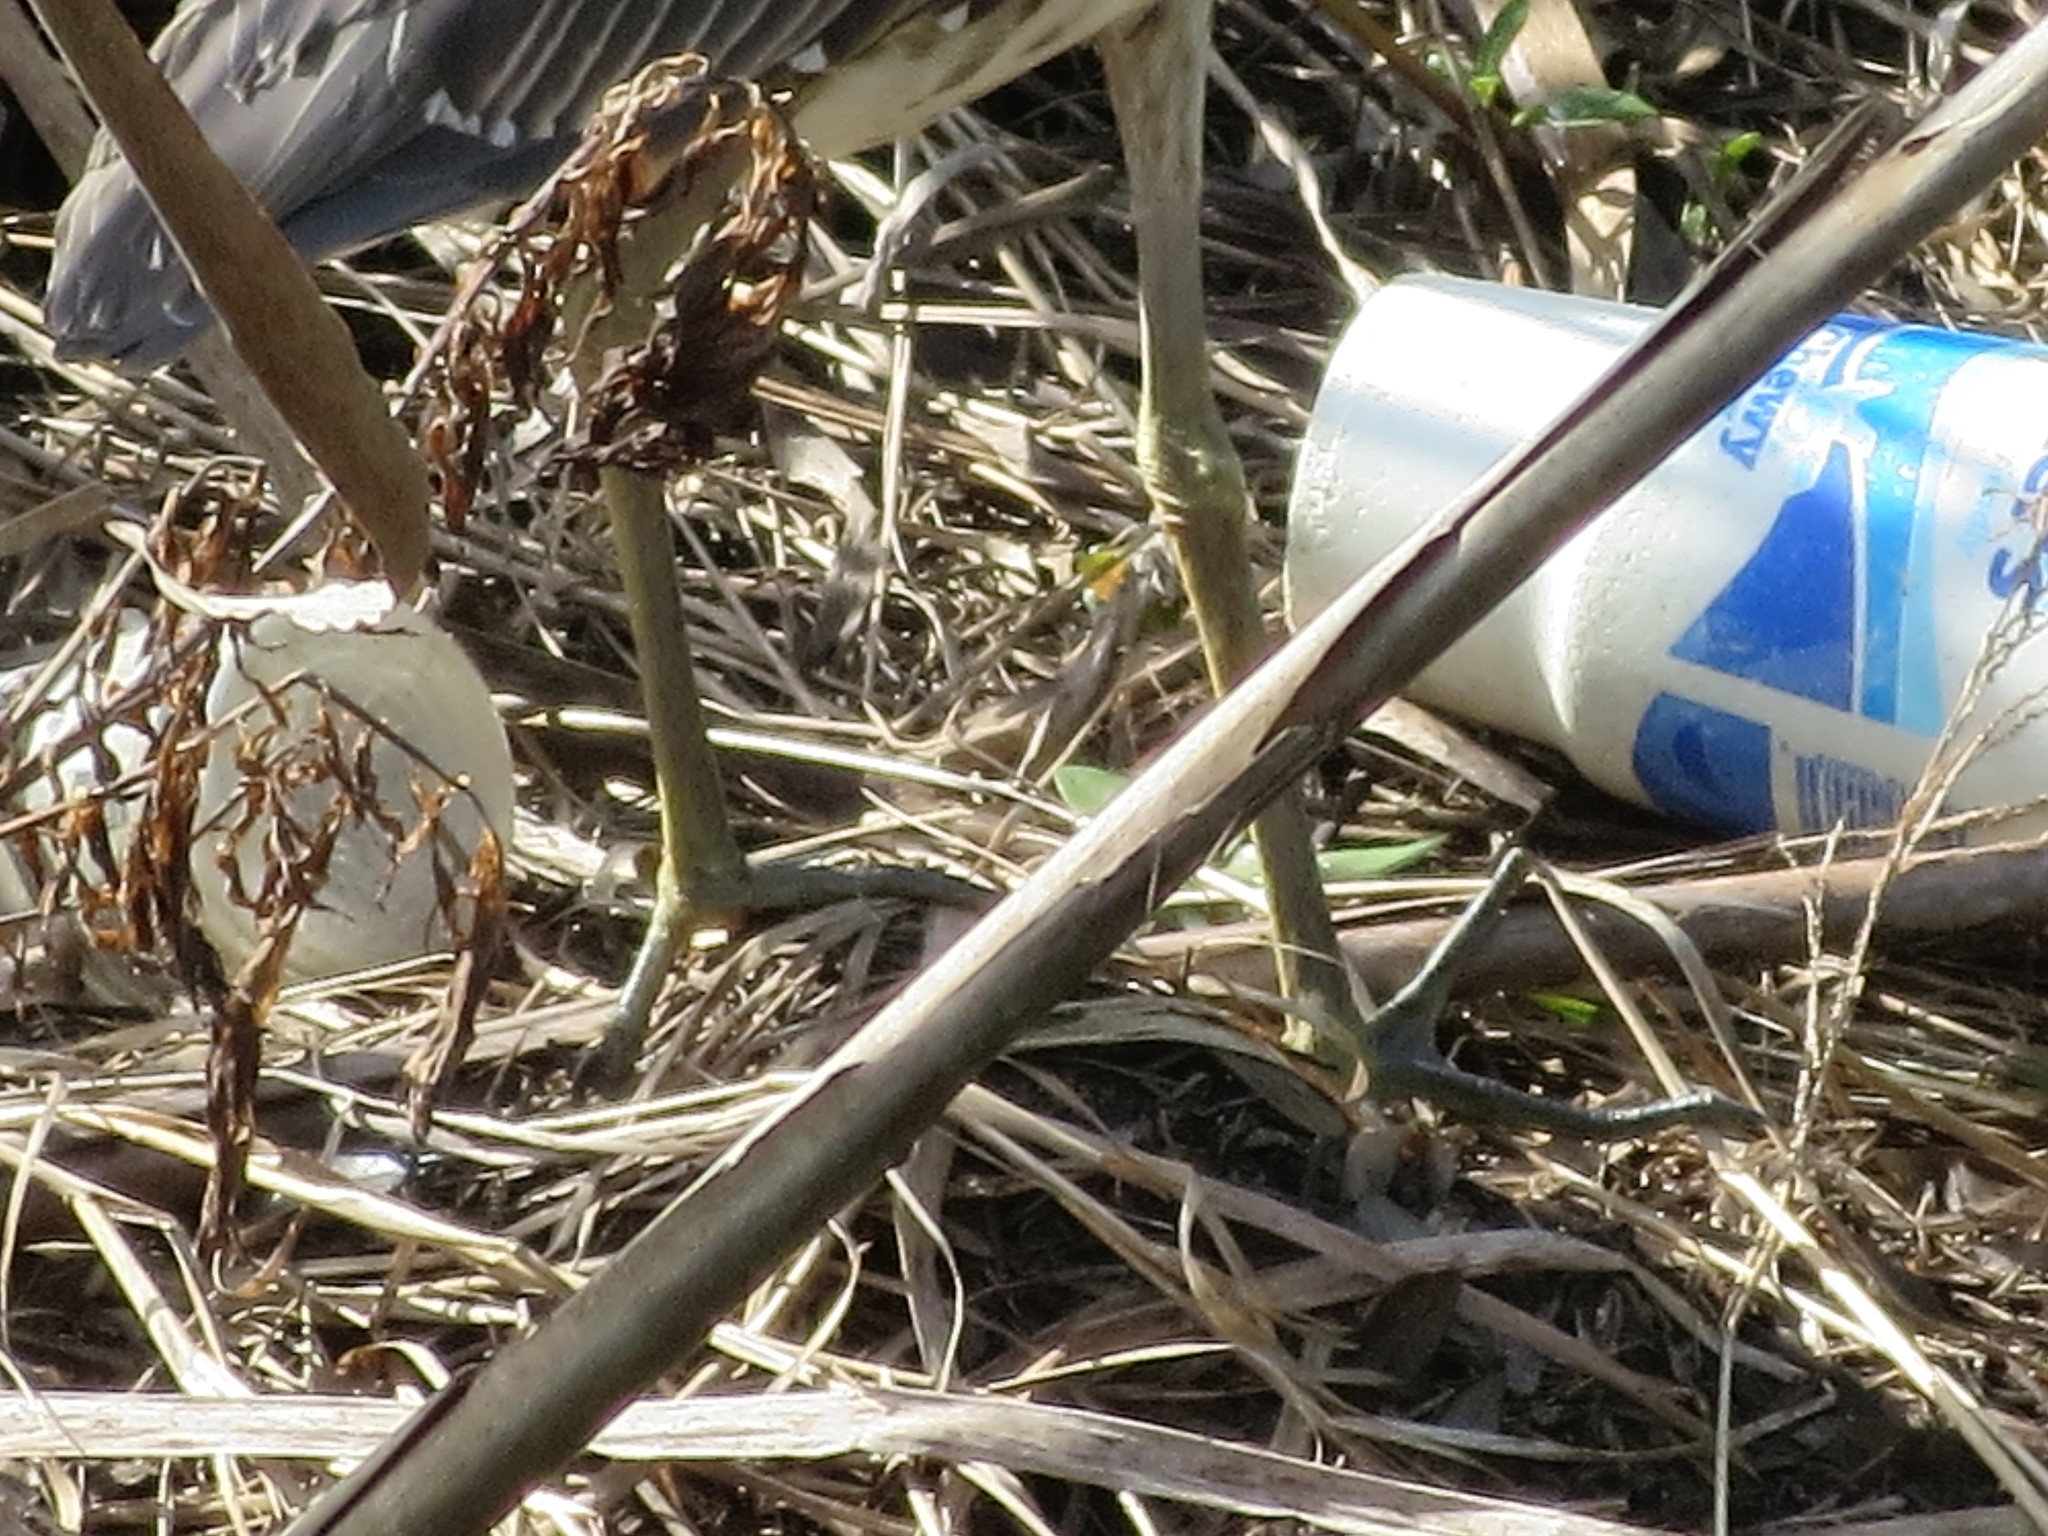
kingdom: Animalia
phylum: Chordata
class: Aves
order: Pelecaniformes
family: Ardeidae
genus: Nyctanassa
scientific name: Nyctanassa violacea
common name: Yellow-crowned night heron
